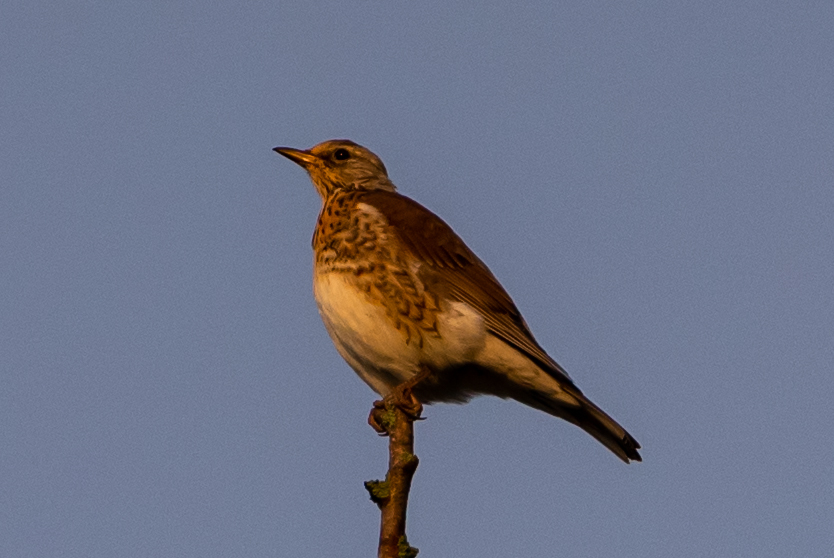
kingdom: Animalia
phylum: Chordata
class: Aves
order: Passeriformes
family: Turdidae
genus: Turdus
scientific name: Turdus pilaris
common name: Fieldfare
